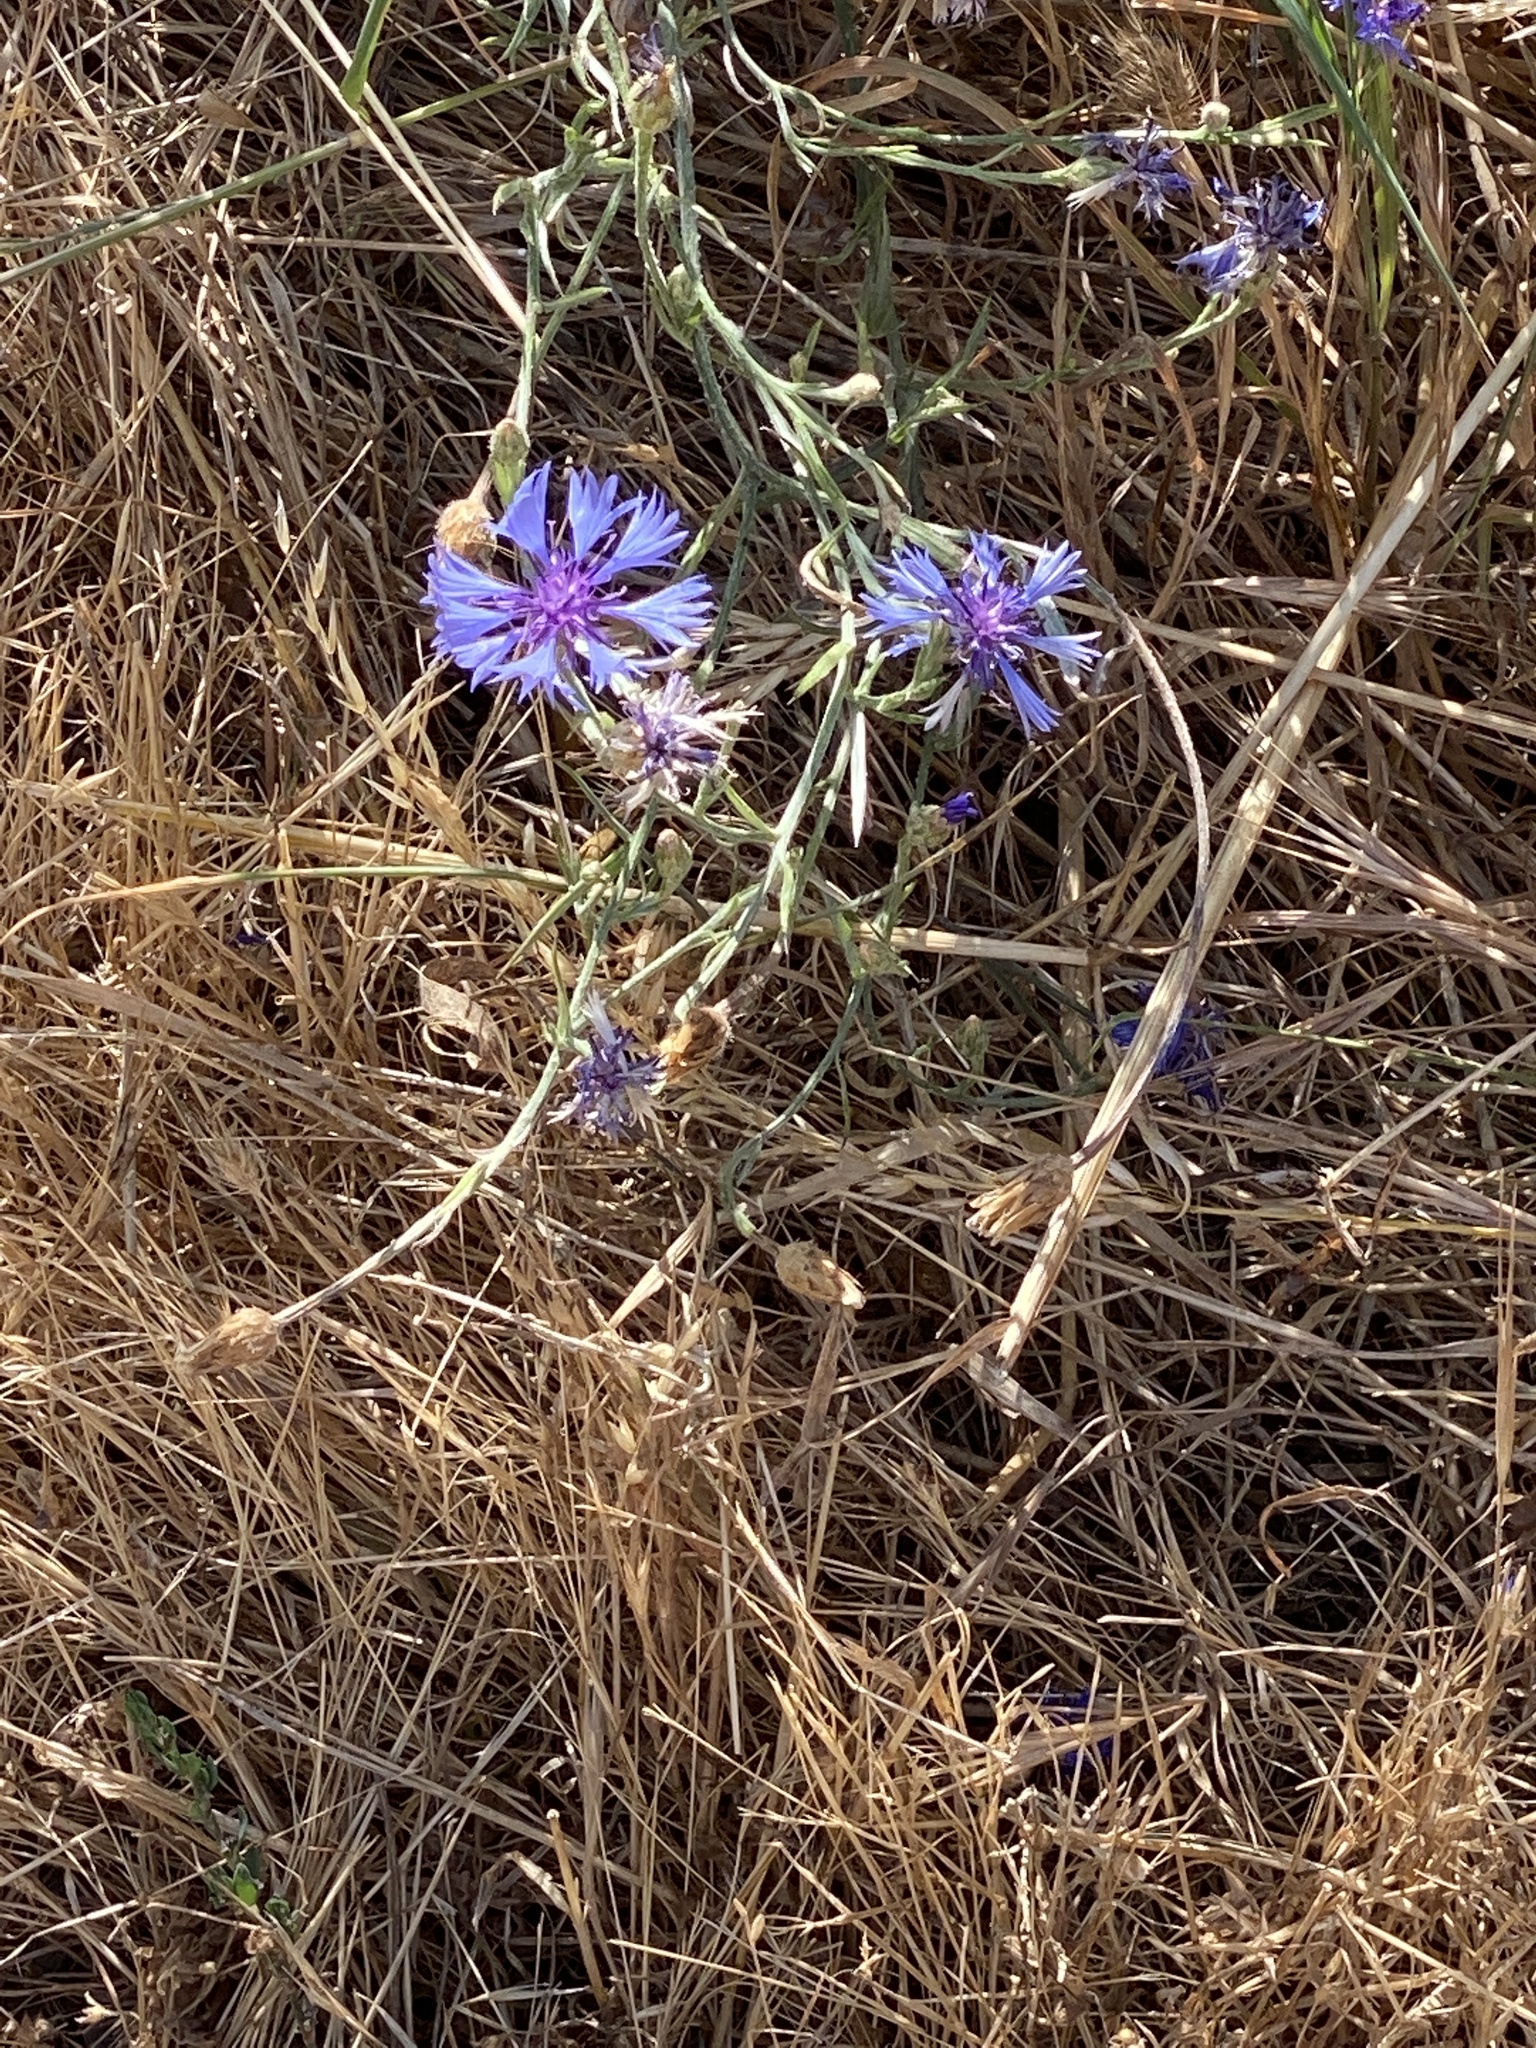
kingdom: Plantae
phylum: Tracheophyta
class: Magnoliopsida
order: Asterales
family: Asteraceae
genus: Centaurea
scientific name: Centaurea cyanus
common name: Cornflower
